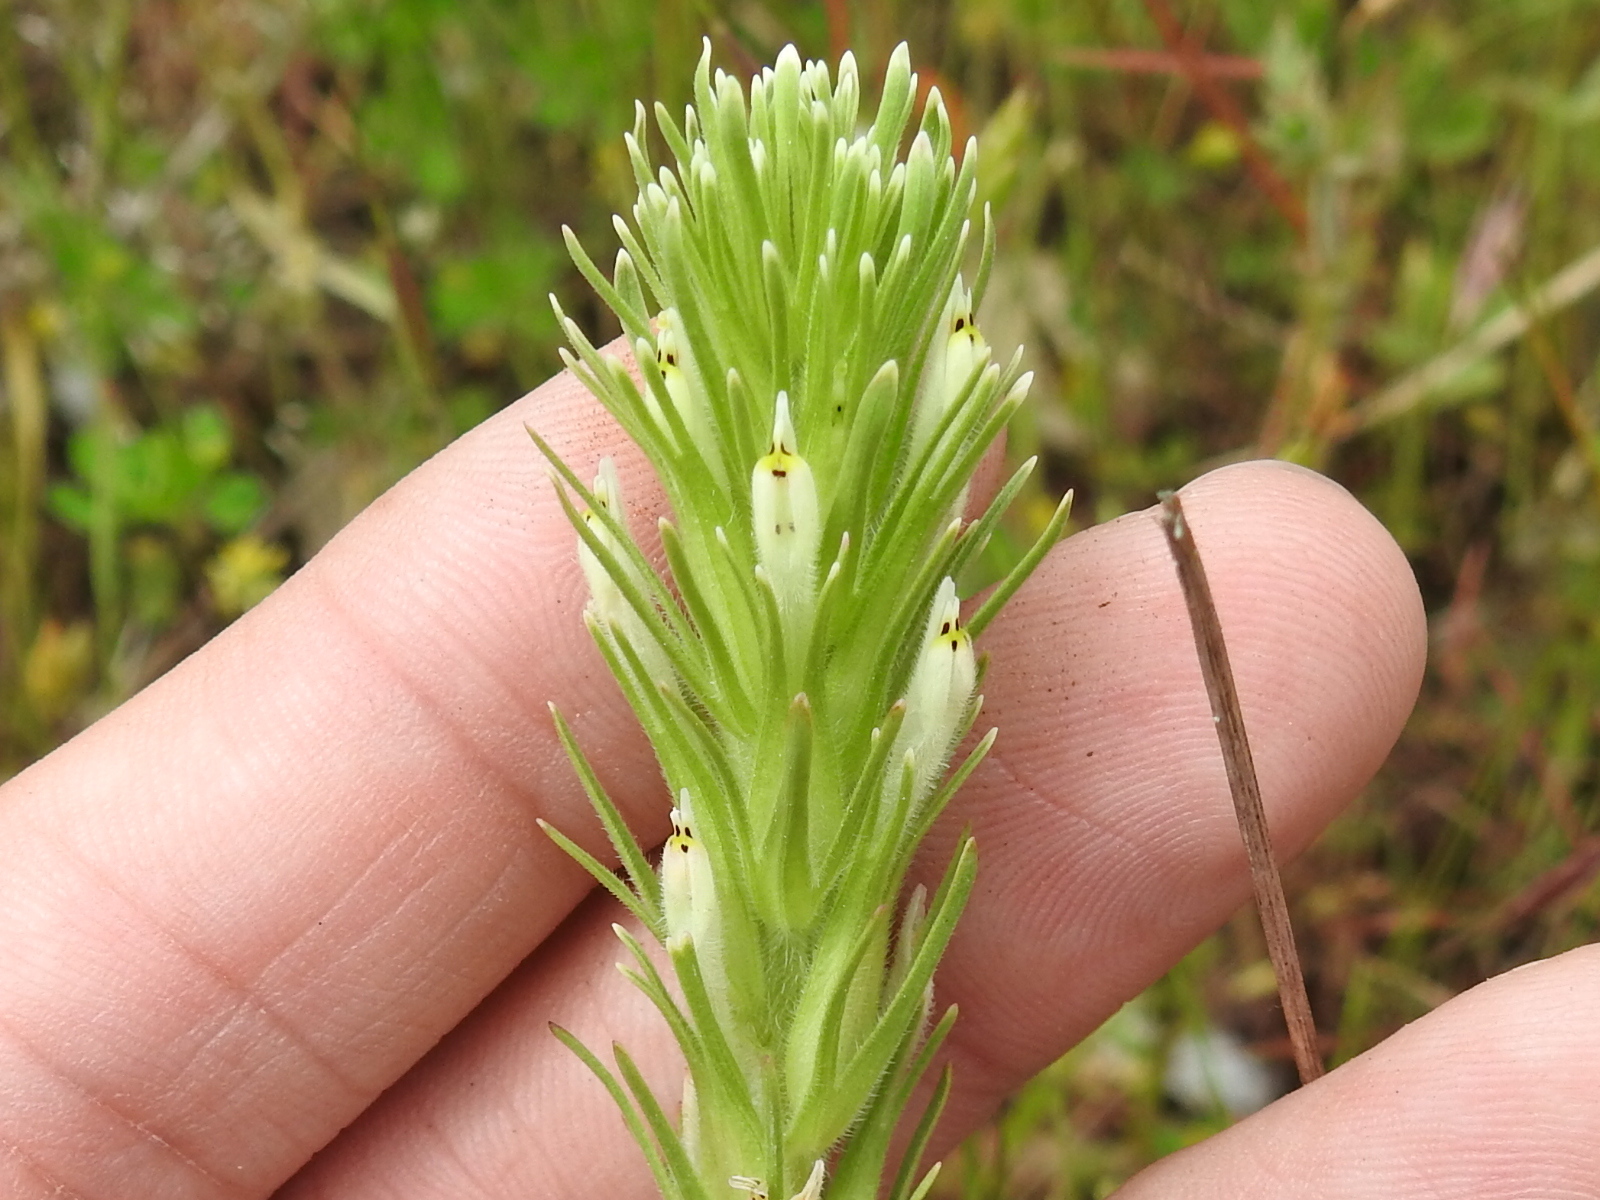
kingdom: Plantae
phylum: Tracheophyta
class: Magnoliopsida
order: Lamiales
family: Orobanchaceae
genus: Castilleja
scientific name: Castilleja attenuata
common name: Valley tassels
